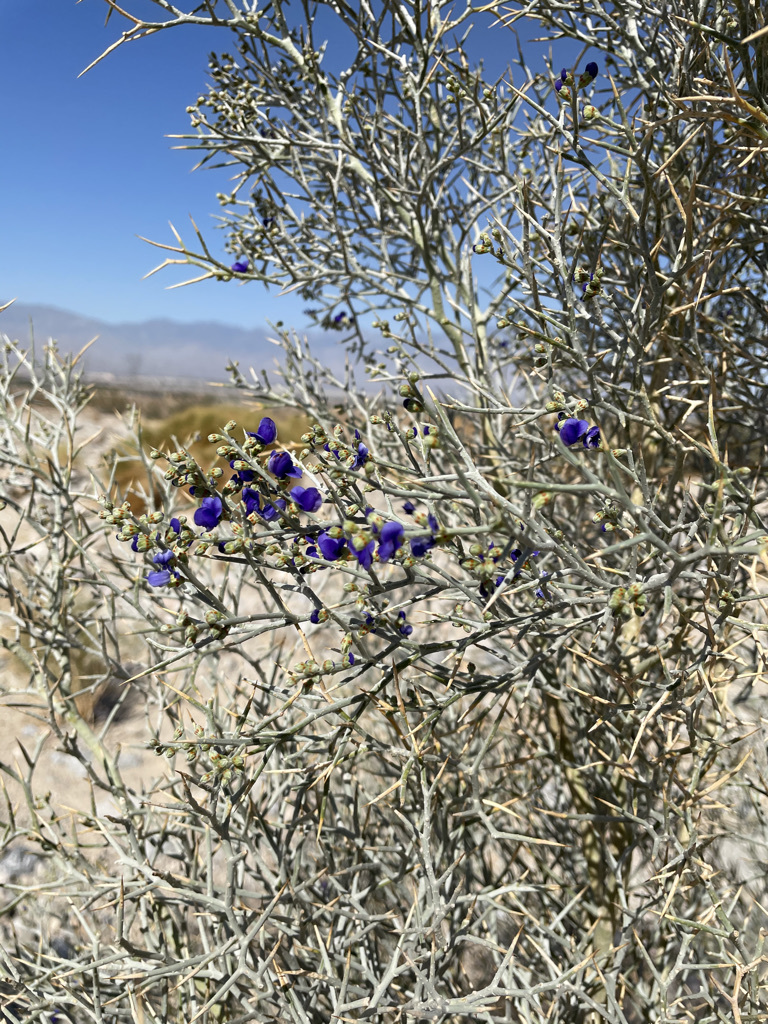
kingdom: Plantae
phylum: Tracheophyta
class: Magnoliopsida
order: Fabales
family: Fabaceae
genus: Psorothamnus
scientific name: Psorothamnus spinosus
